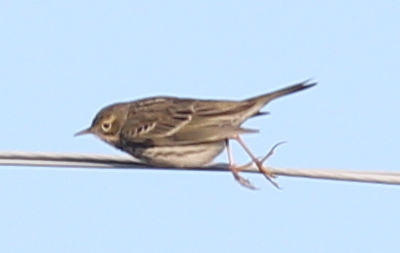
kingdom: Animalia
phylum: Chordata
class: Aves
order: Passeriformes
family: Motacillidae
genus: Anthus
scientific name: Anthus pratensis
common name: Meadow pipit
